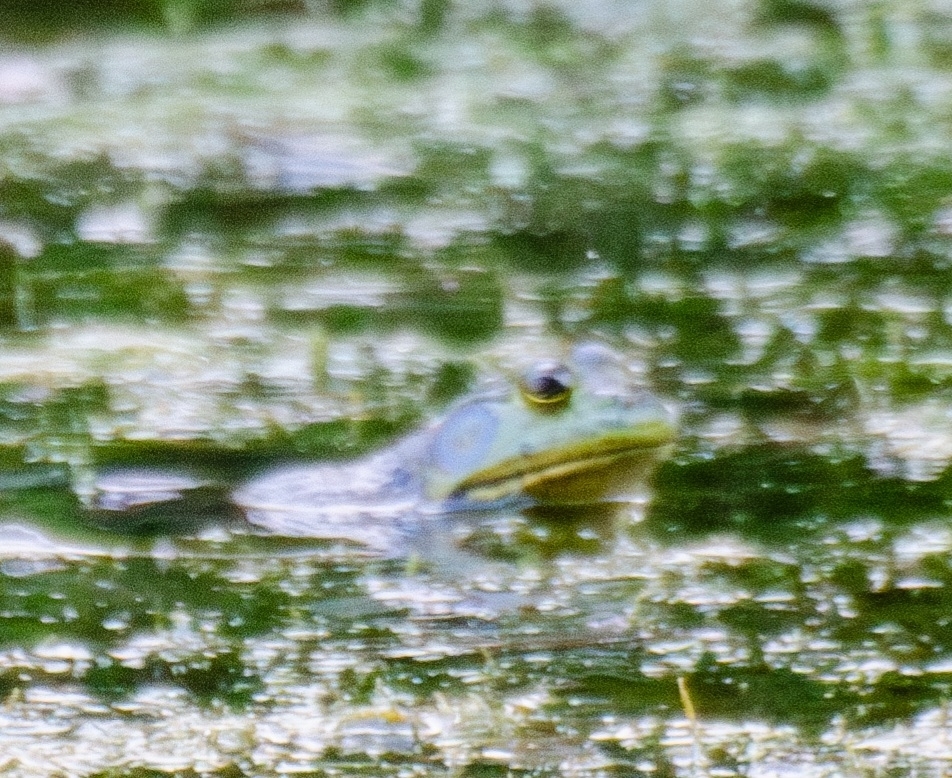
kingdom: Animalia
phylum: Chordata
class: Amphibia
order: Anura
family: Ranidae
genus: Lithobates
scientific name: Lithobates catesbeianus
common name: American bullfrog
